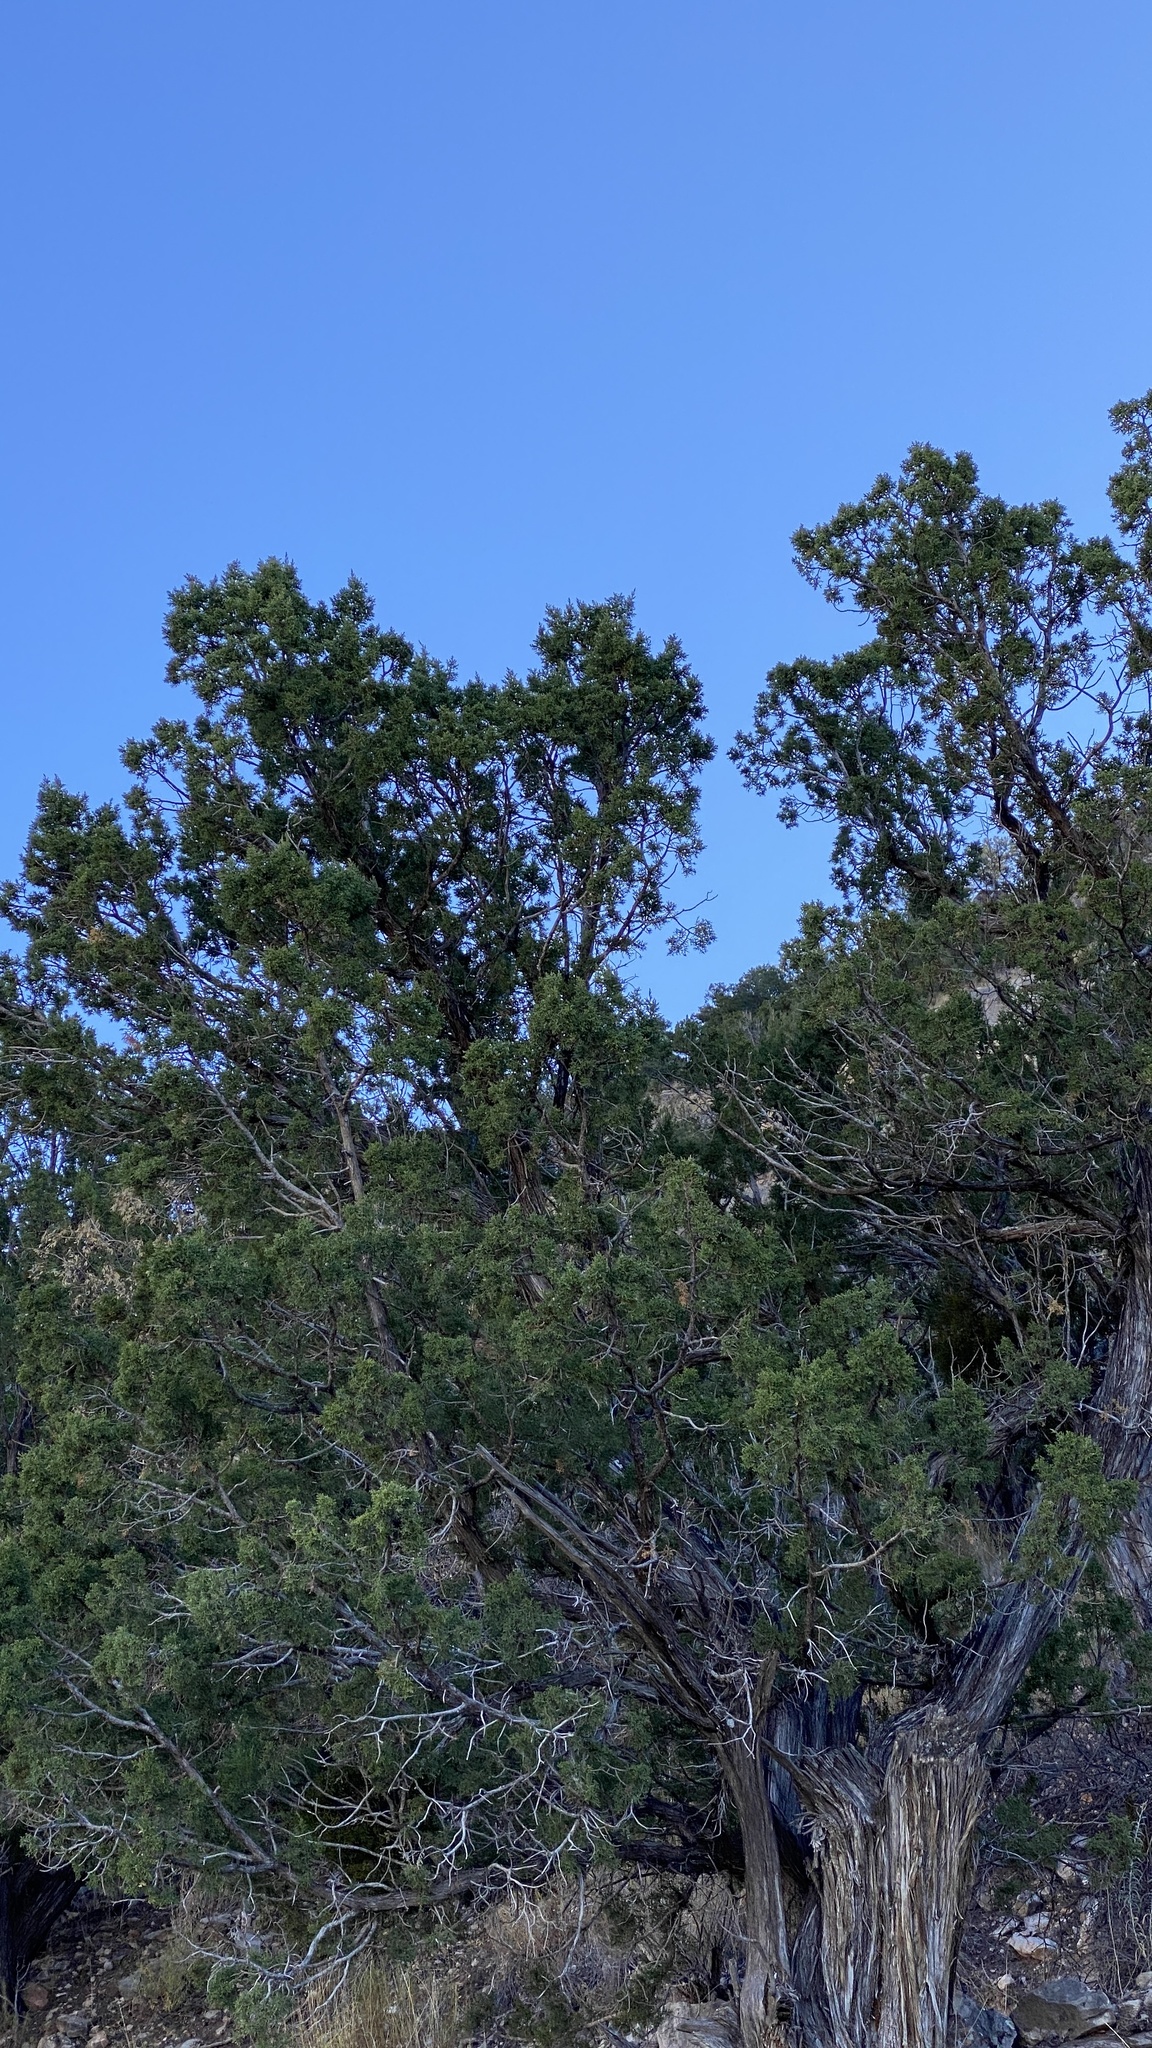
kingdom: Plantae
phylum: Tracheophyta
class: Pinopsida
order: Pinales
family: Cupressaceae
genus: Juniperus
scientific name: Juniperus monosperma
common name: One-seed juniper
